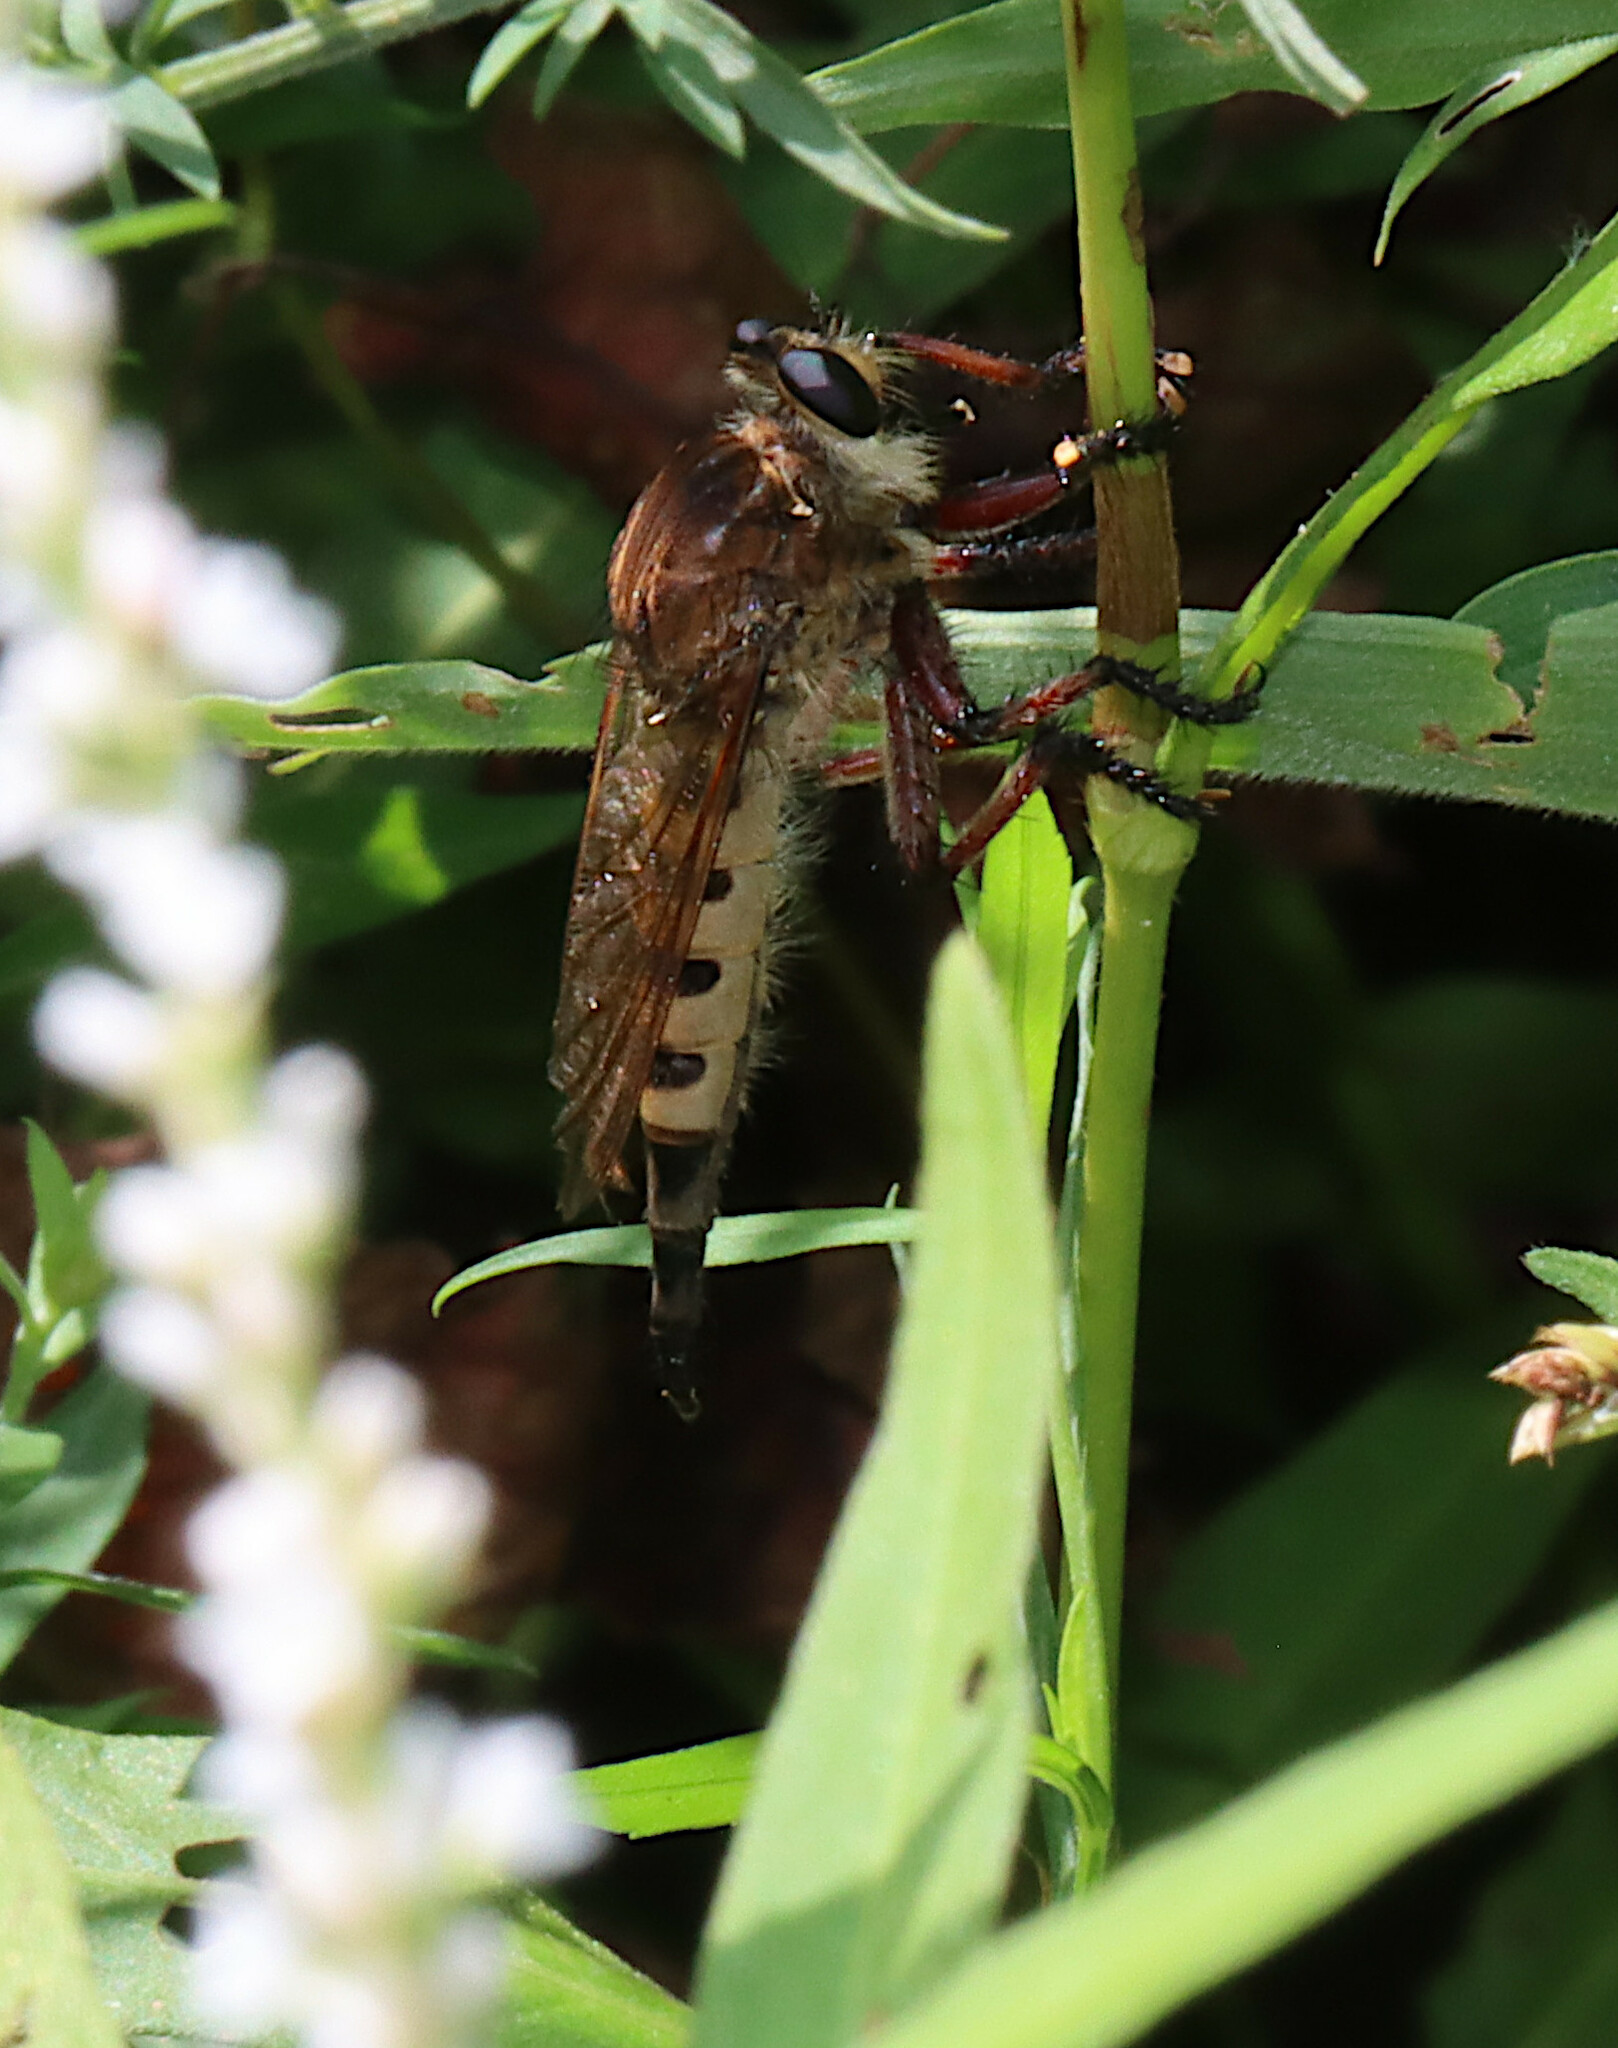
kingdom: Animalia
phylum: Arthropoda
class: Insecta
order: Diptera
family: Asilidae
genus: Promachus
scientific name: Promachus hinei
